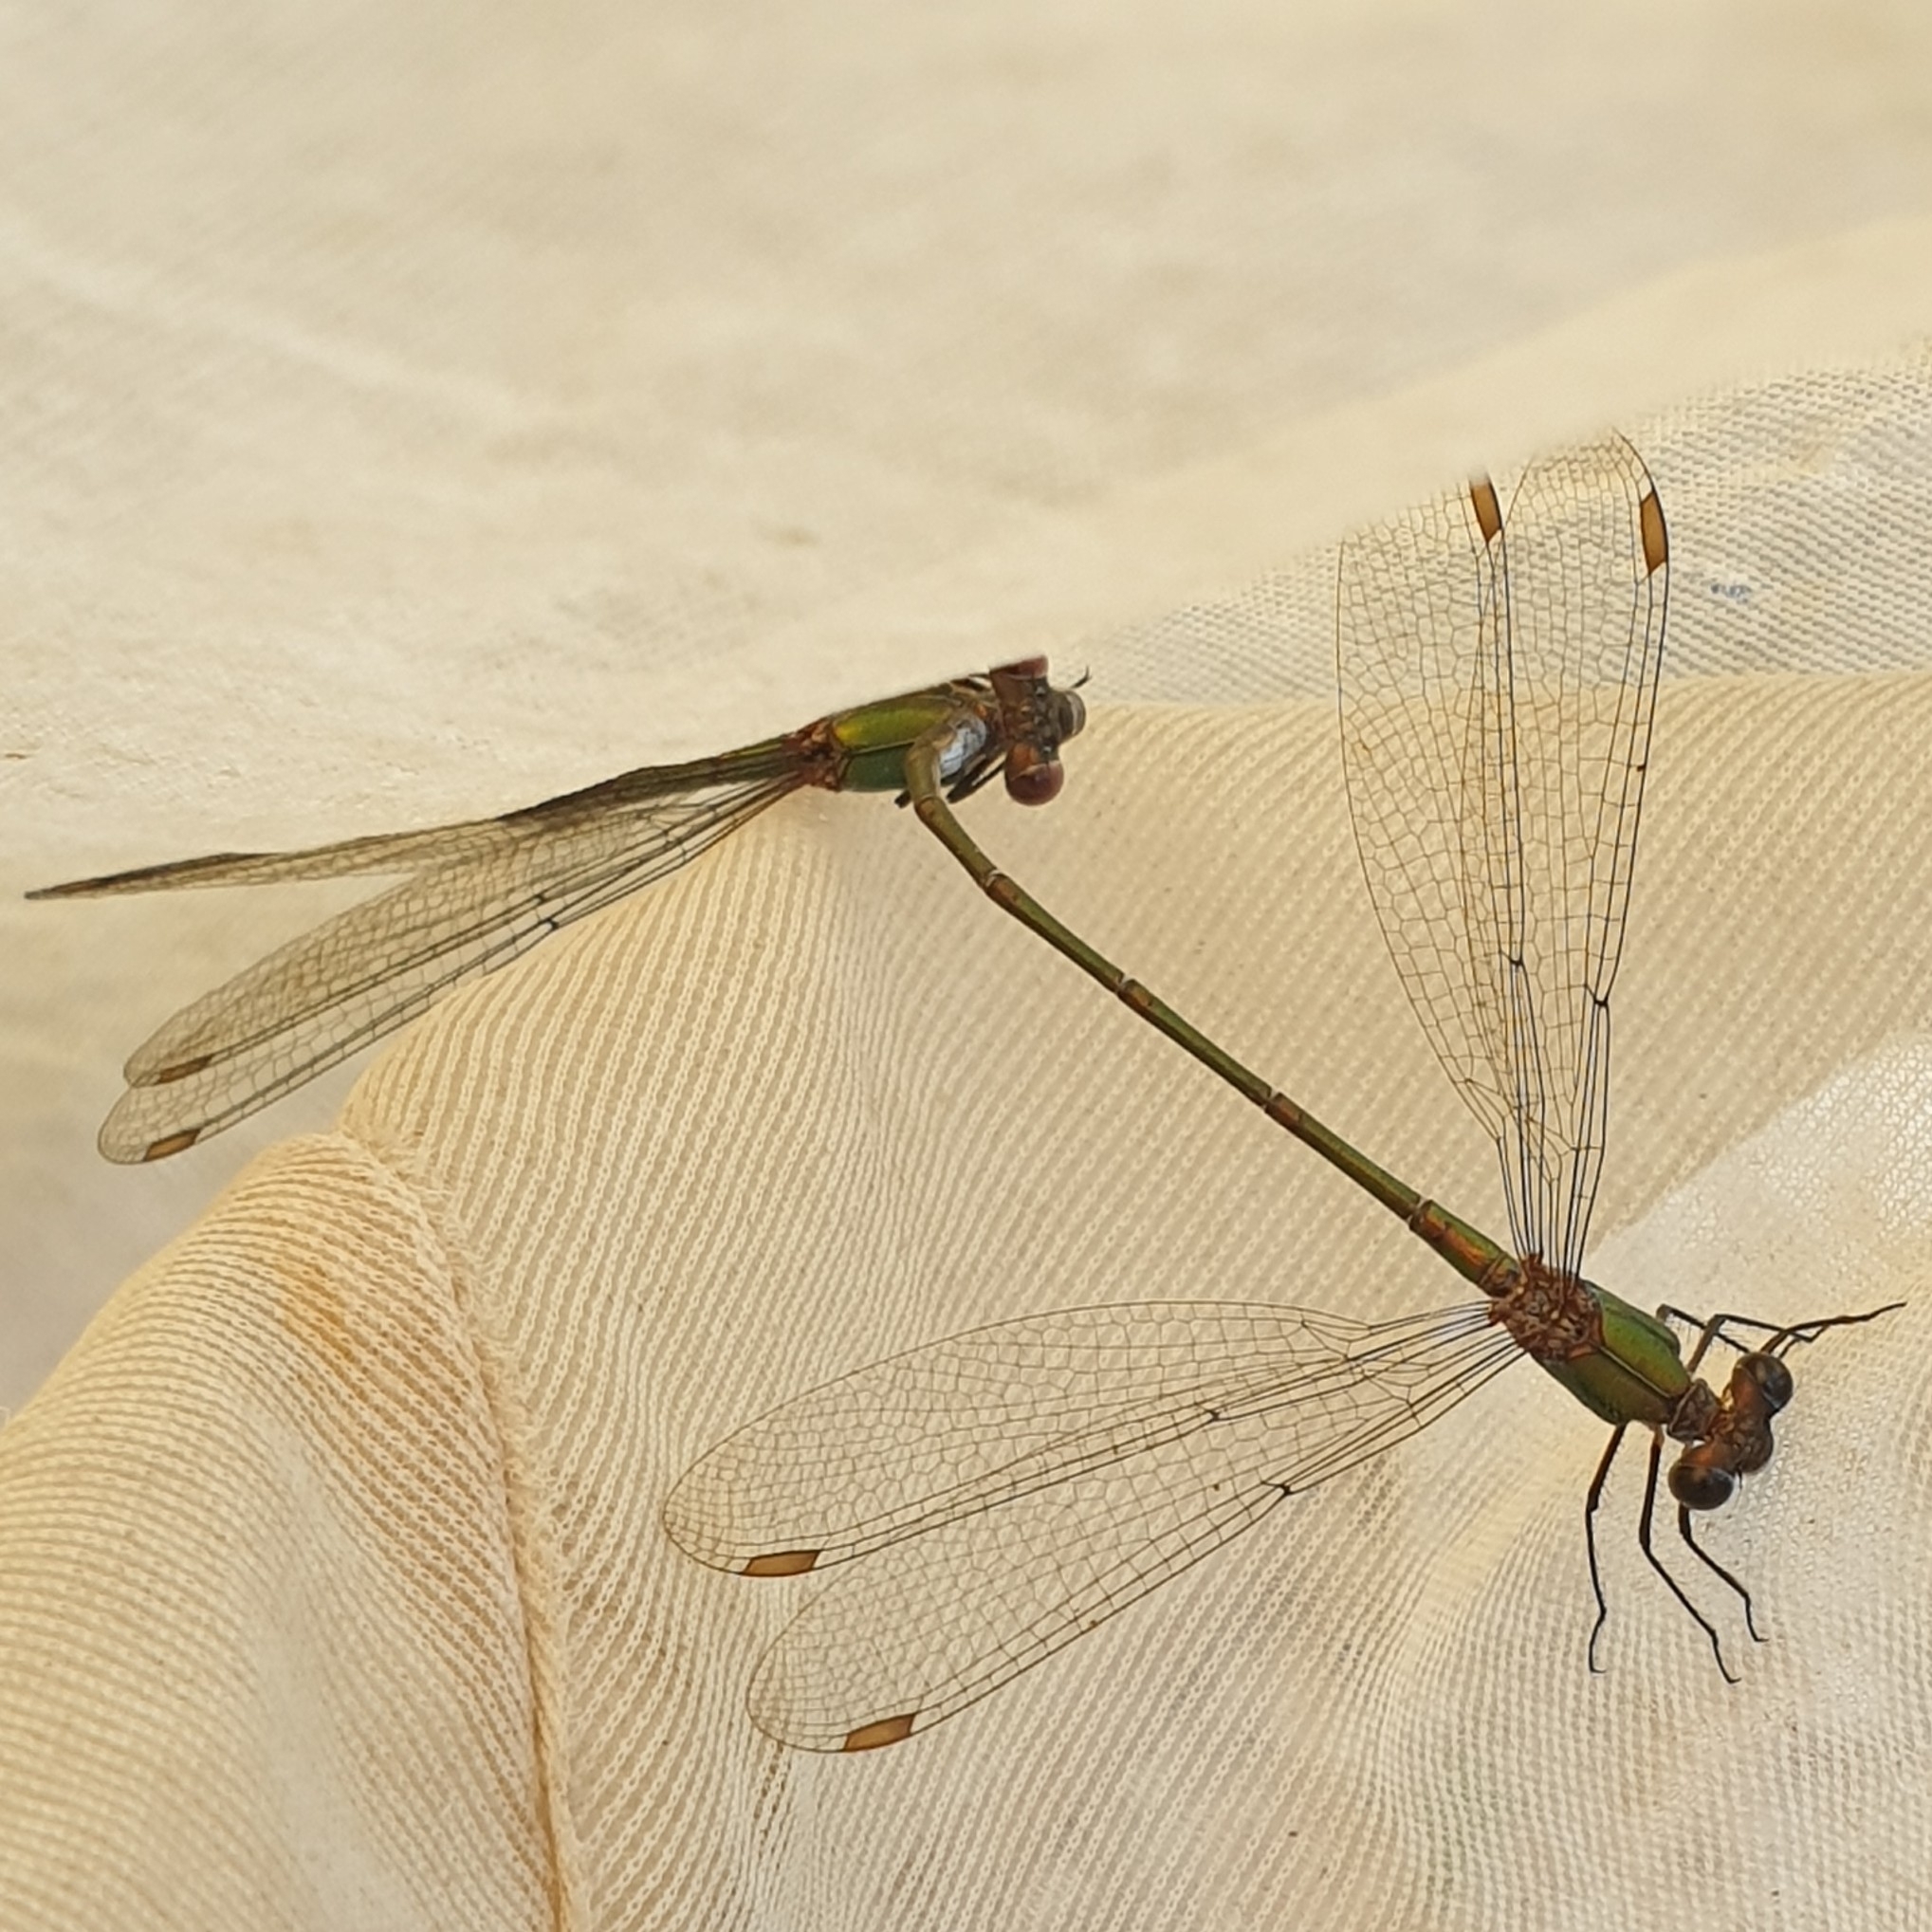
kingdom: Animalia
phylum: Arthropoda
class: Insecta
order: Odonata
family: Lestidae
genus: Chalcolestes
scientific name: Chalcolestes viridis
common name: Green emerald damselfly
